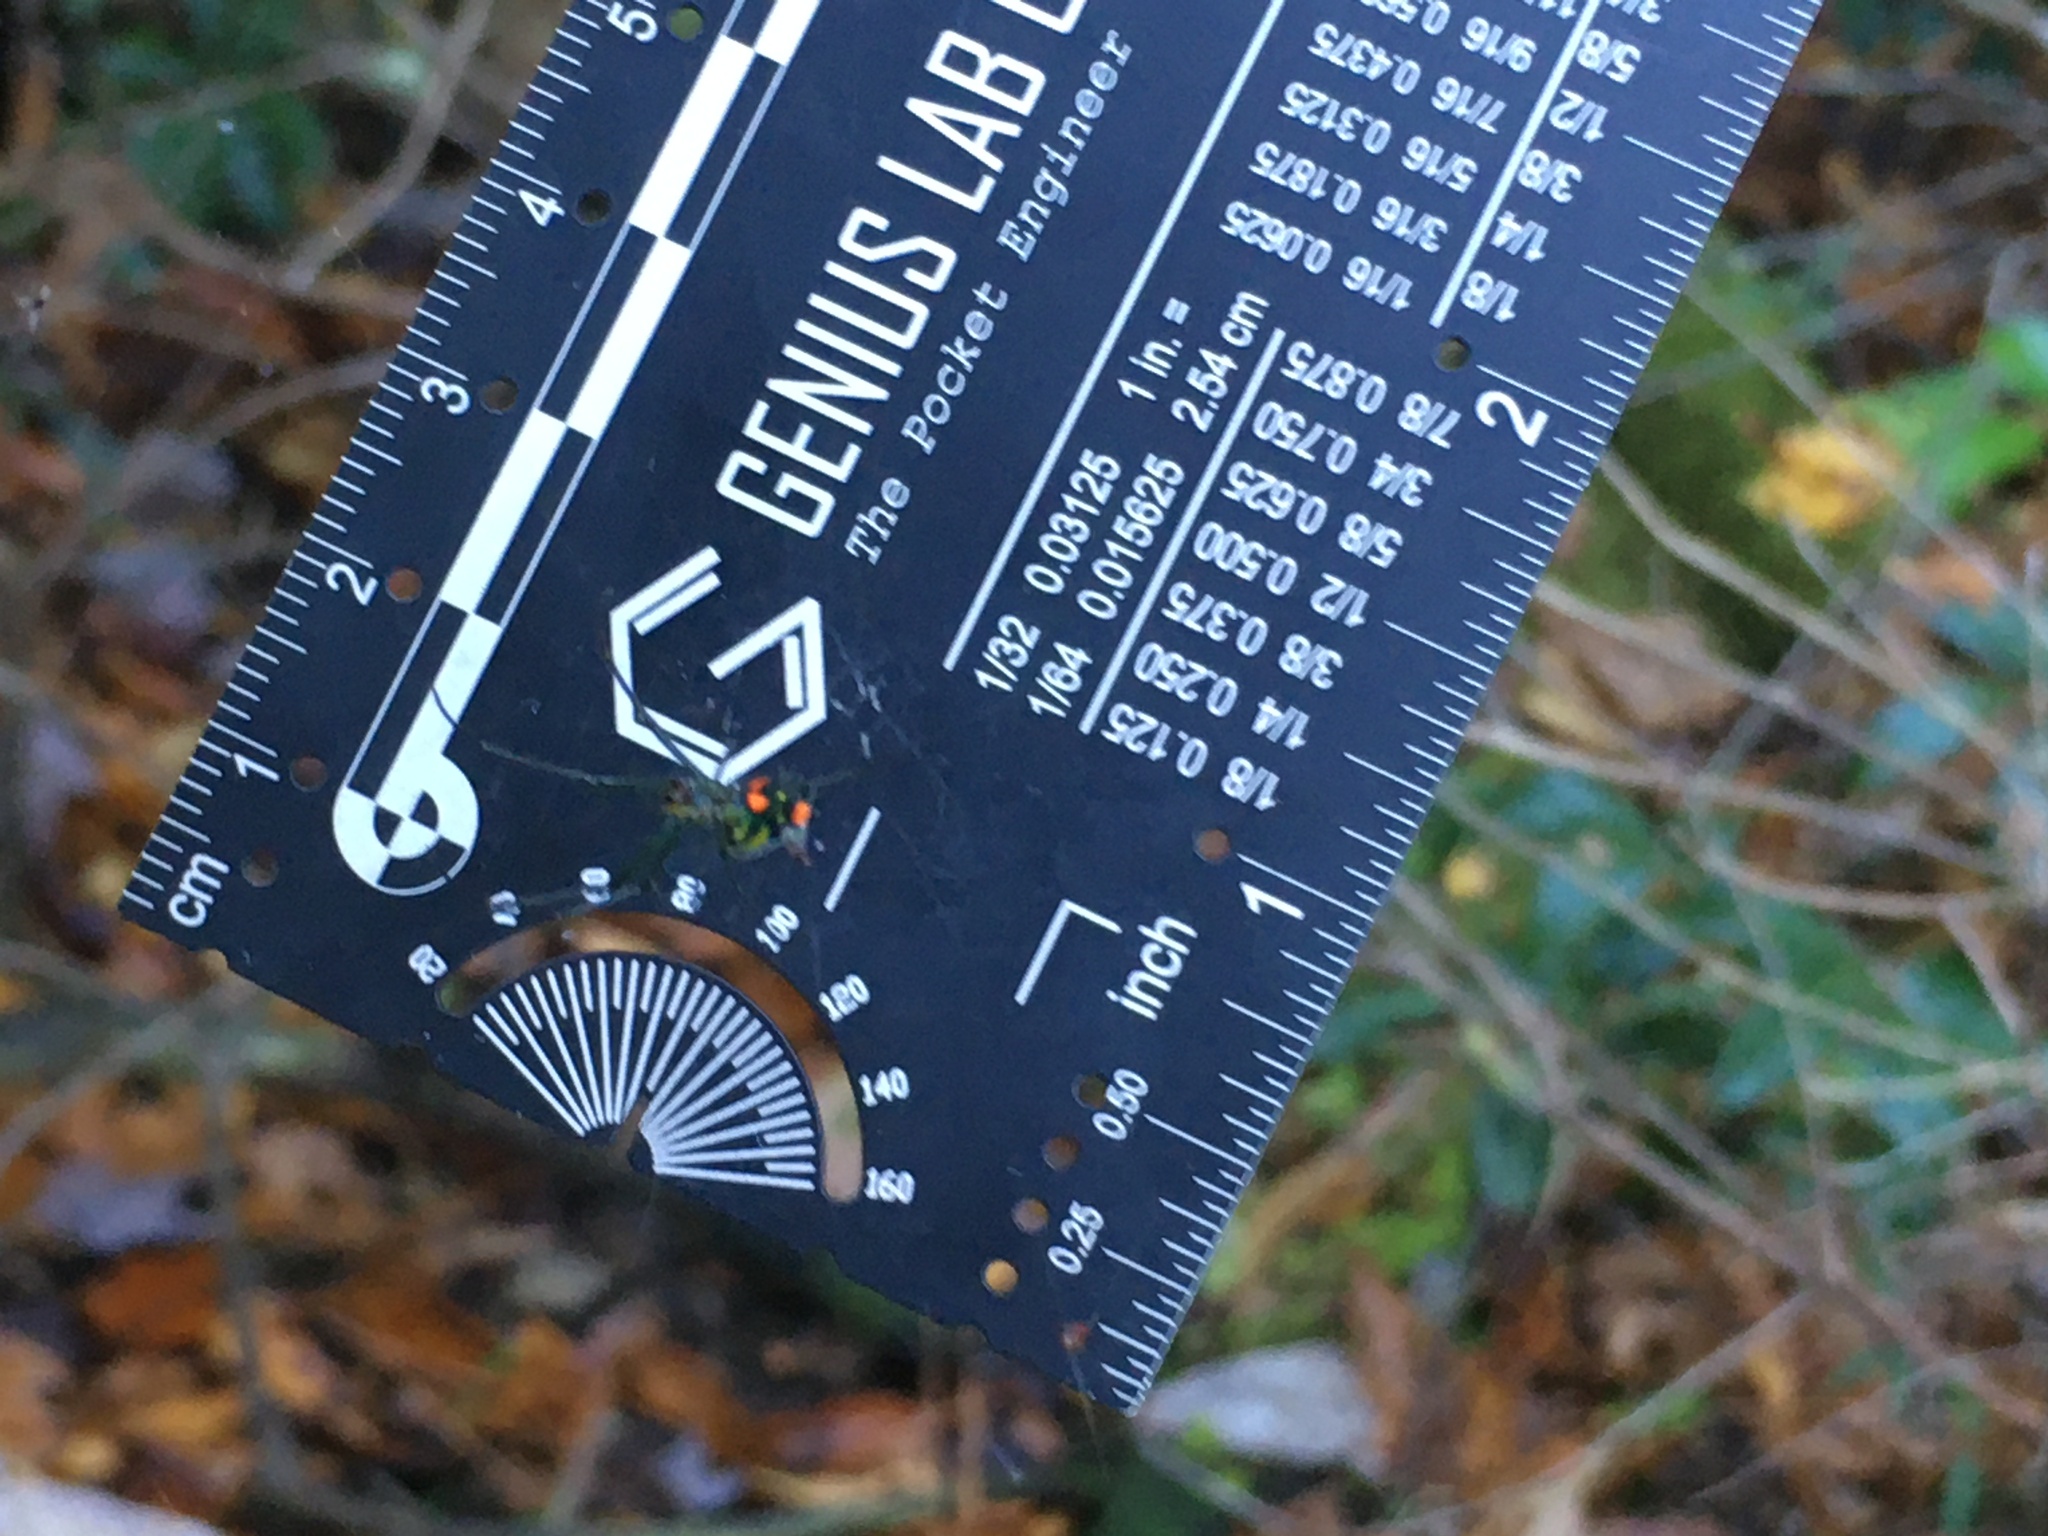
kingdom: Animalia
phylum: Arthropoda
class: Arachnida
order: Araneae
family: Tetragnathidae
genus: Leucauge
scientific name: Leucauge argyrobapta
